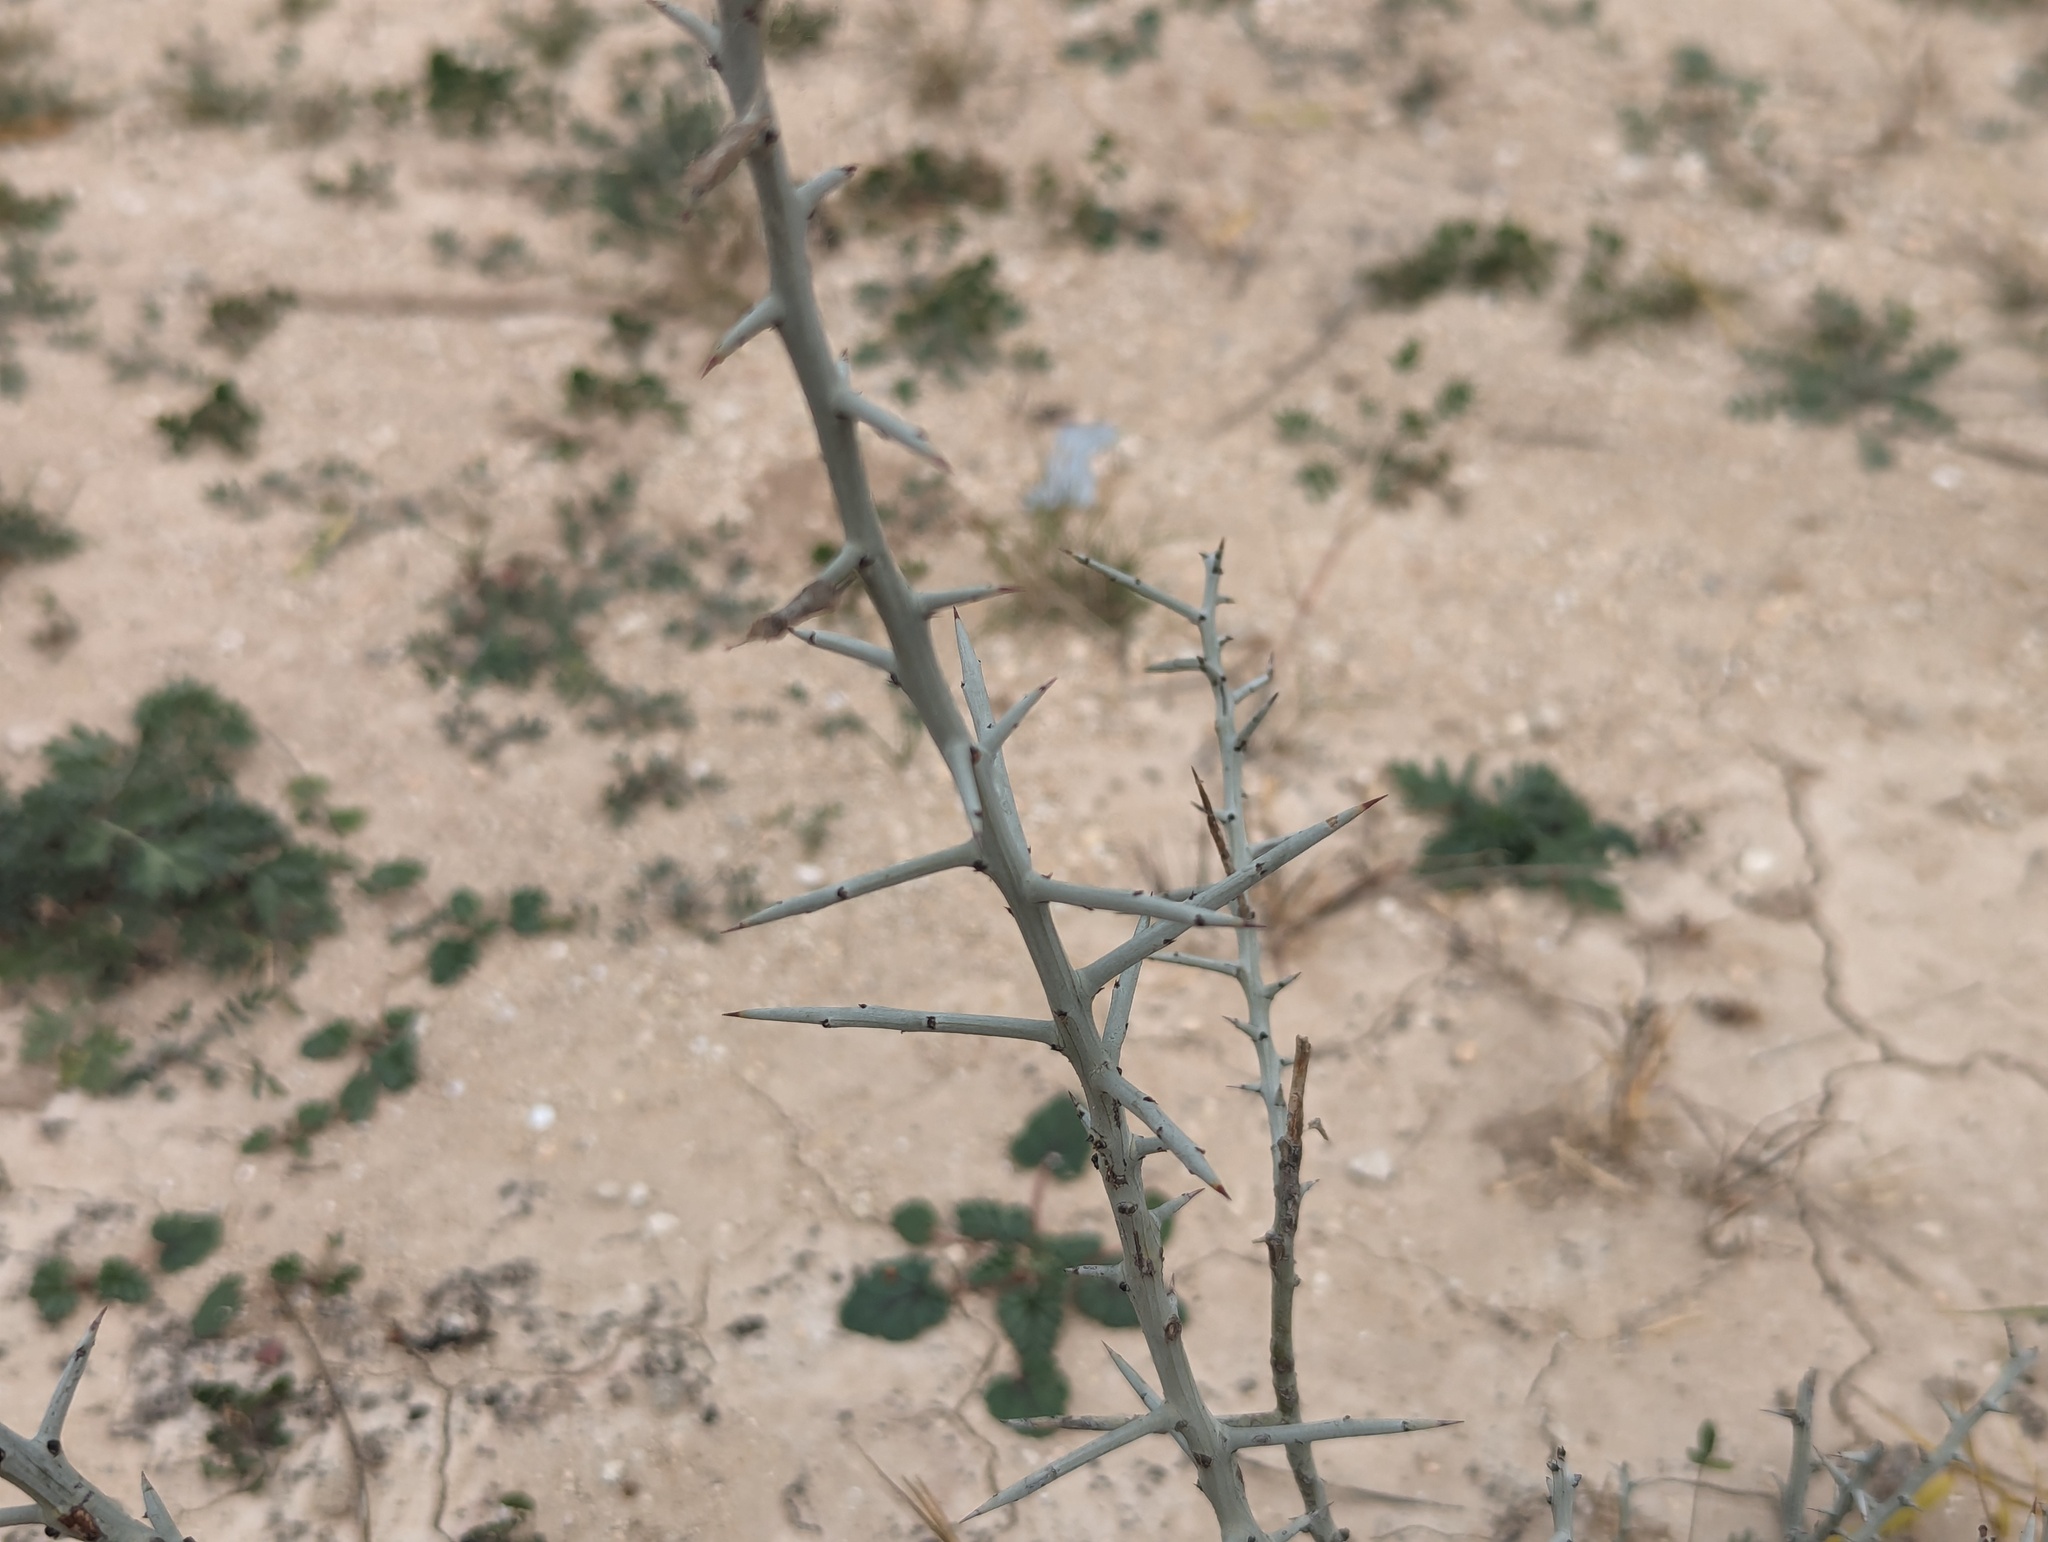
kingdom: Plantae
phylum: Tracheophyta
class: Magnoliopsida
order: Rosales
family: Rhamnaceae
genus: Sarcomphalus
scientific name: Sarcomphalus obtusifolius
